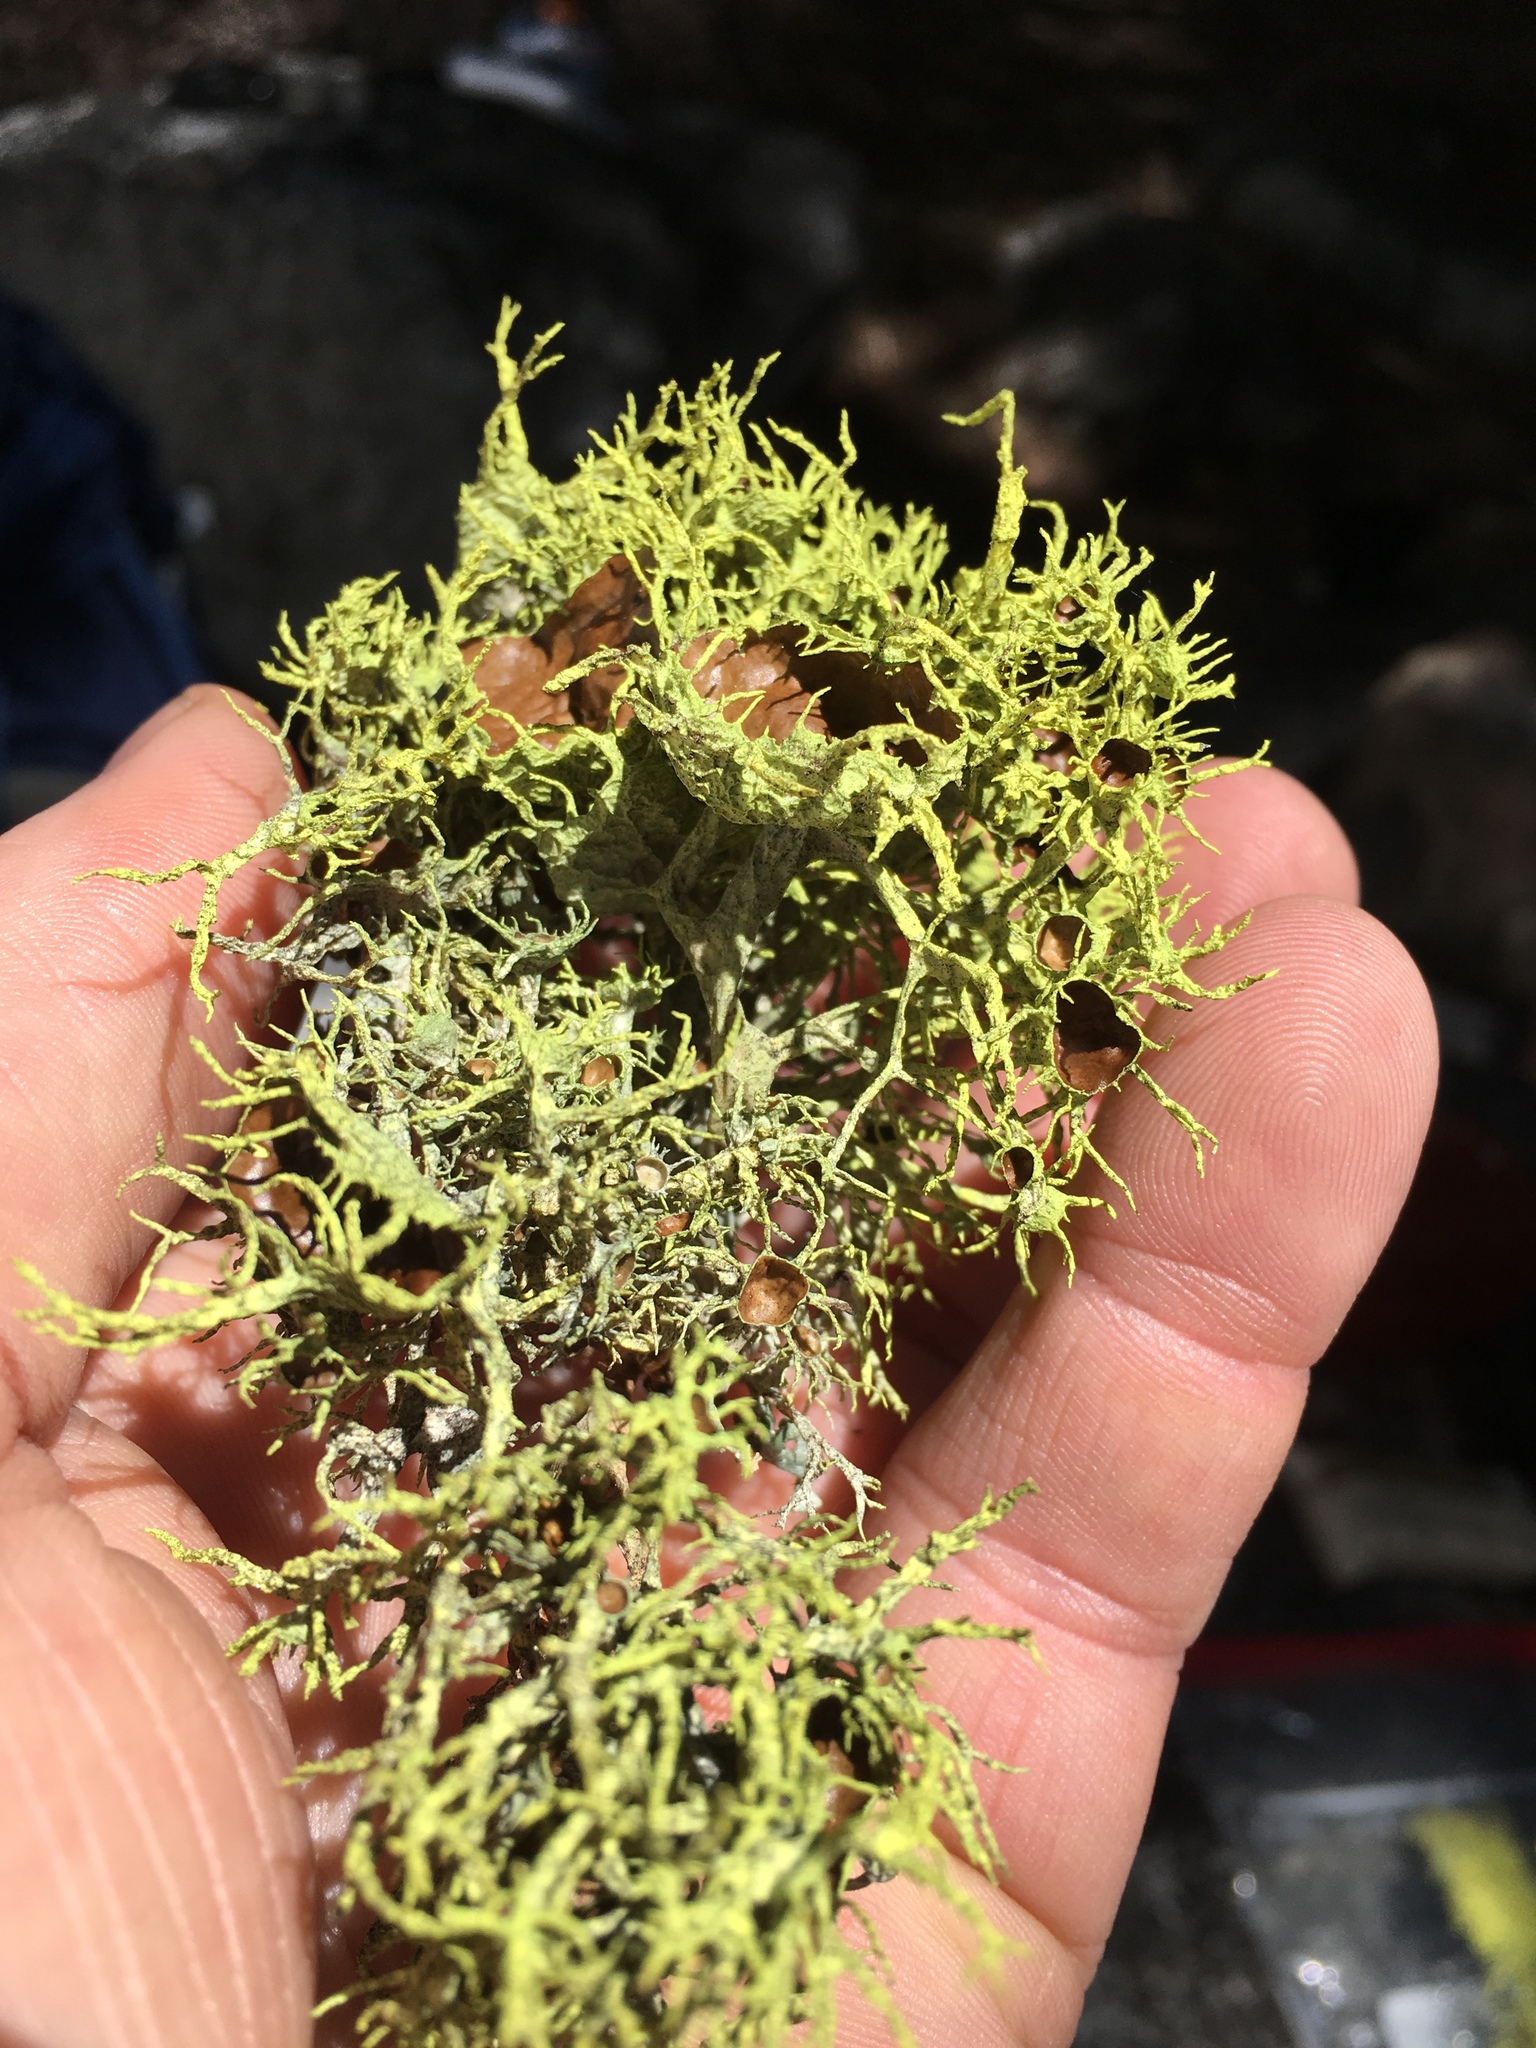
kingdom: Fungi
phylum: Ascomycota
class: Lecanoromycetes
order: Lecanorales
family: Parmeliaceae
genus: Letharia
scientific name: Letharia columbiana
